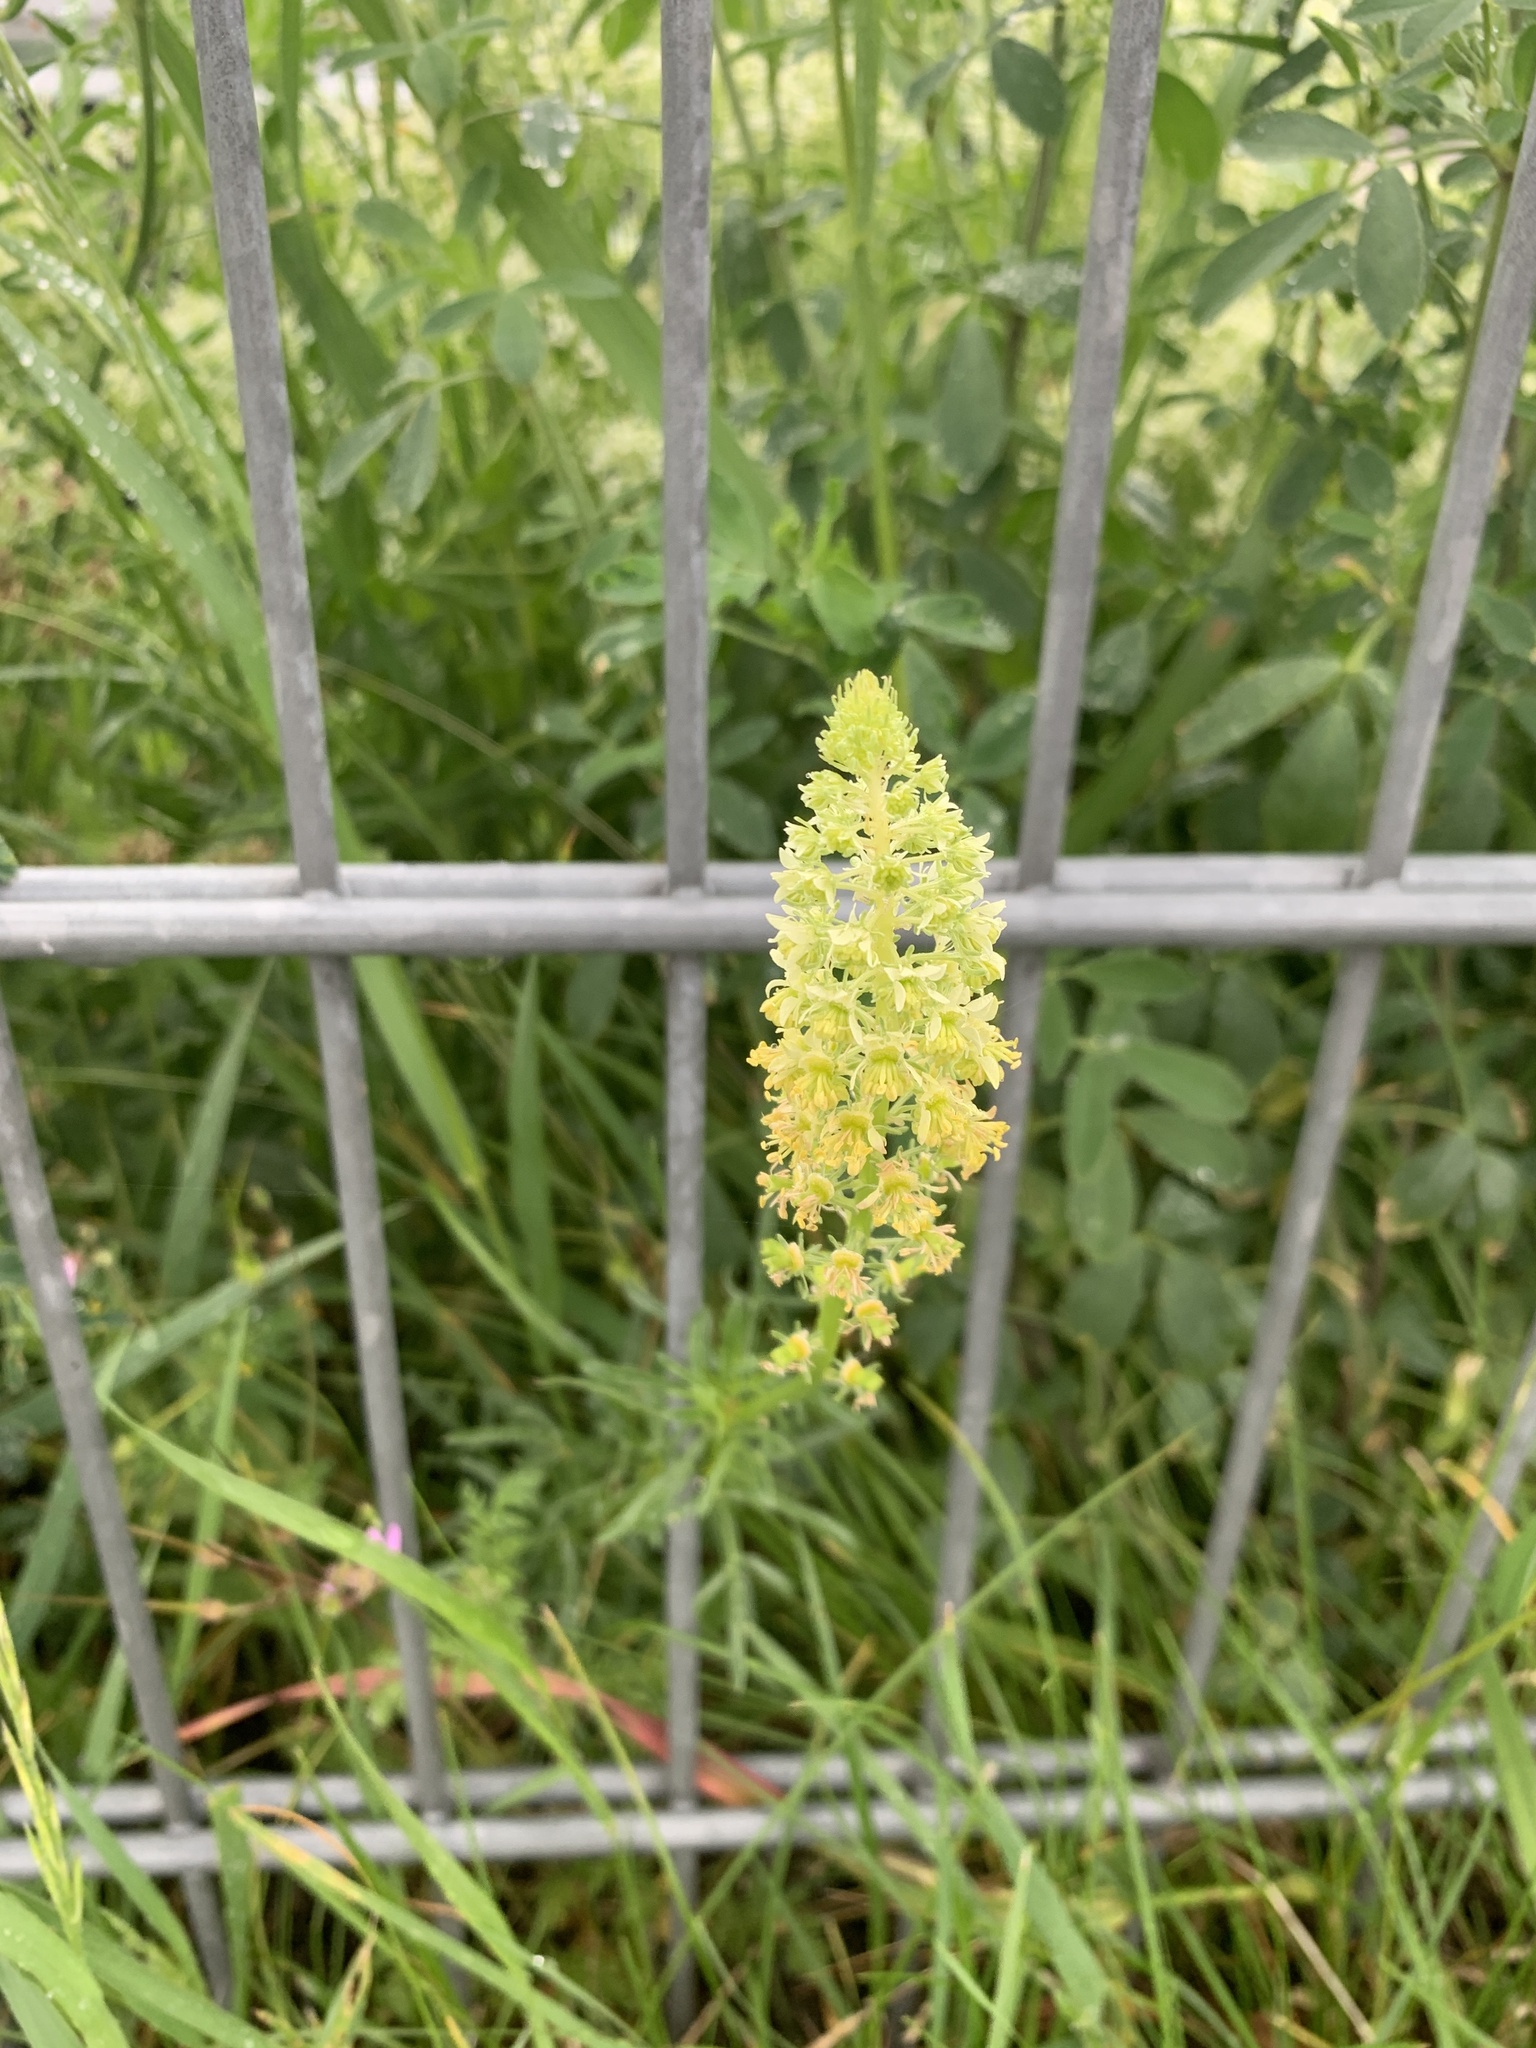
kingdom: Plantae
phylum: Tracheophyta
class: Magnoliopsida
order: Brassicales
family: Resedaceae
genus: Reseda
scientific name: Reseda lutea
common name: Wild mignonette
